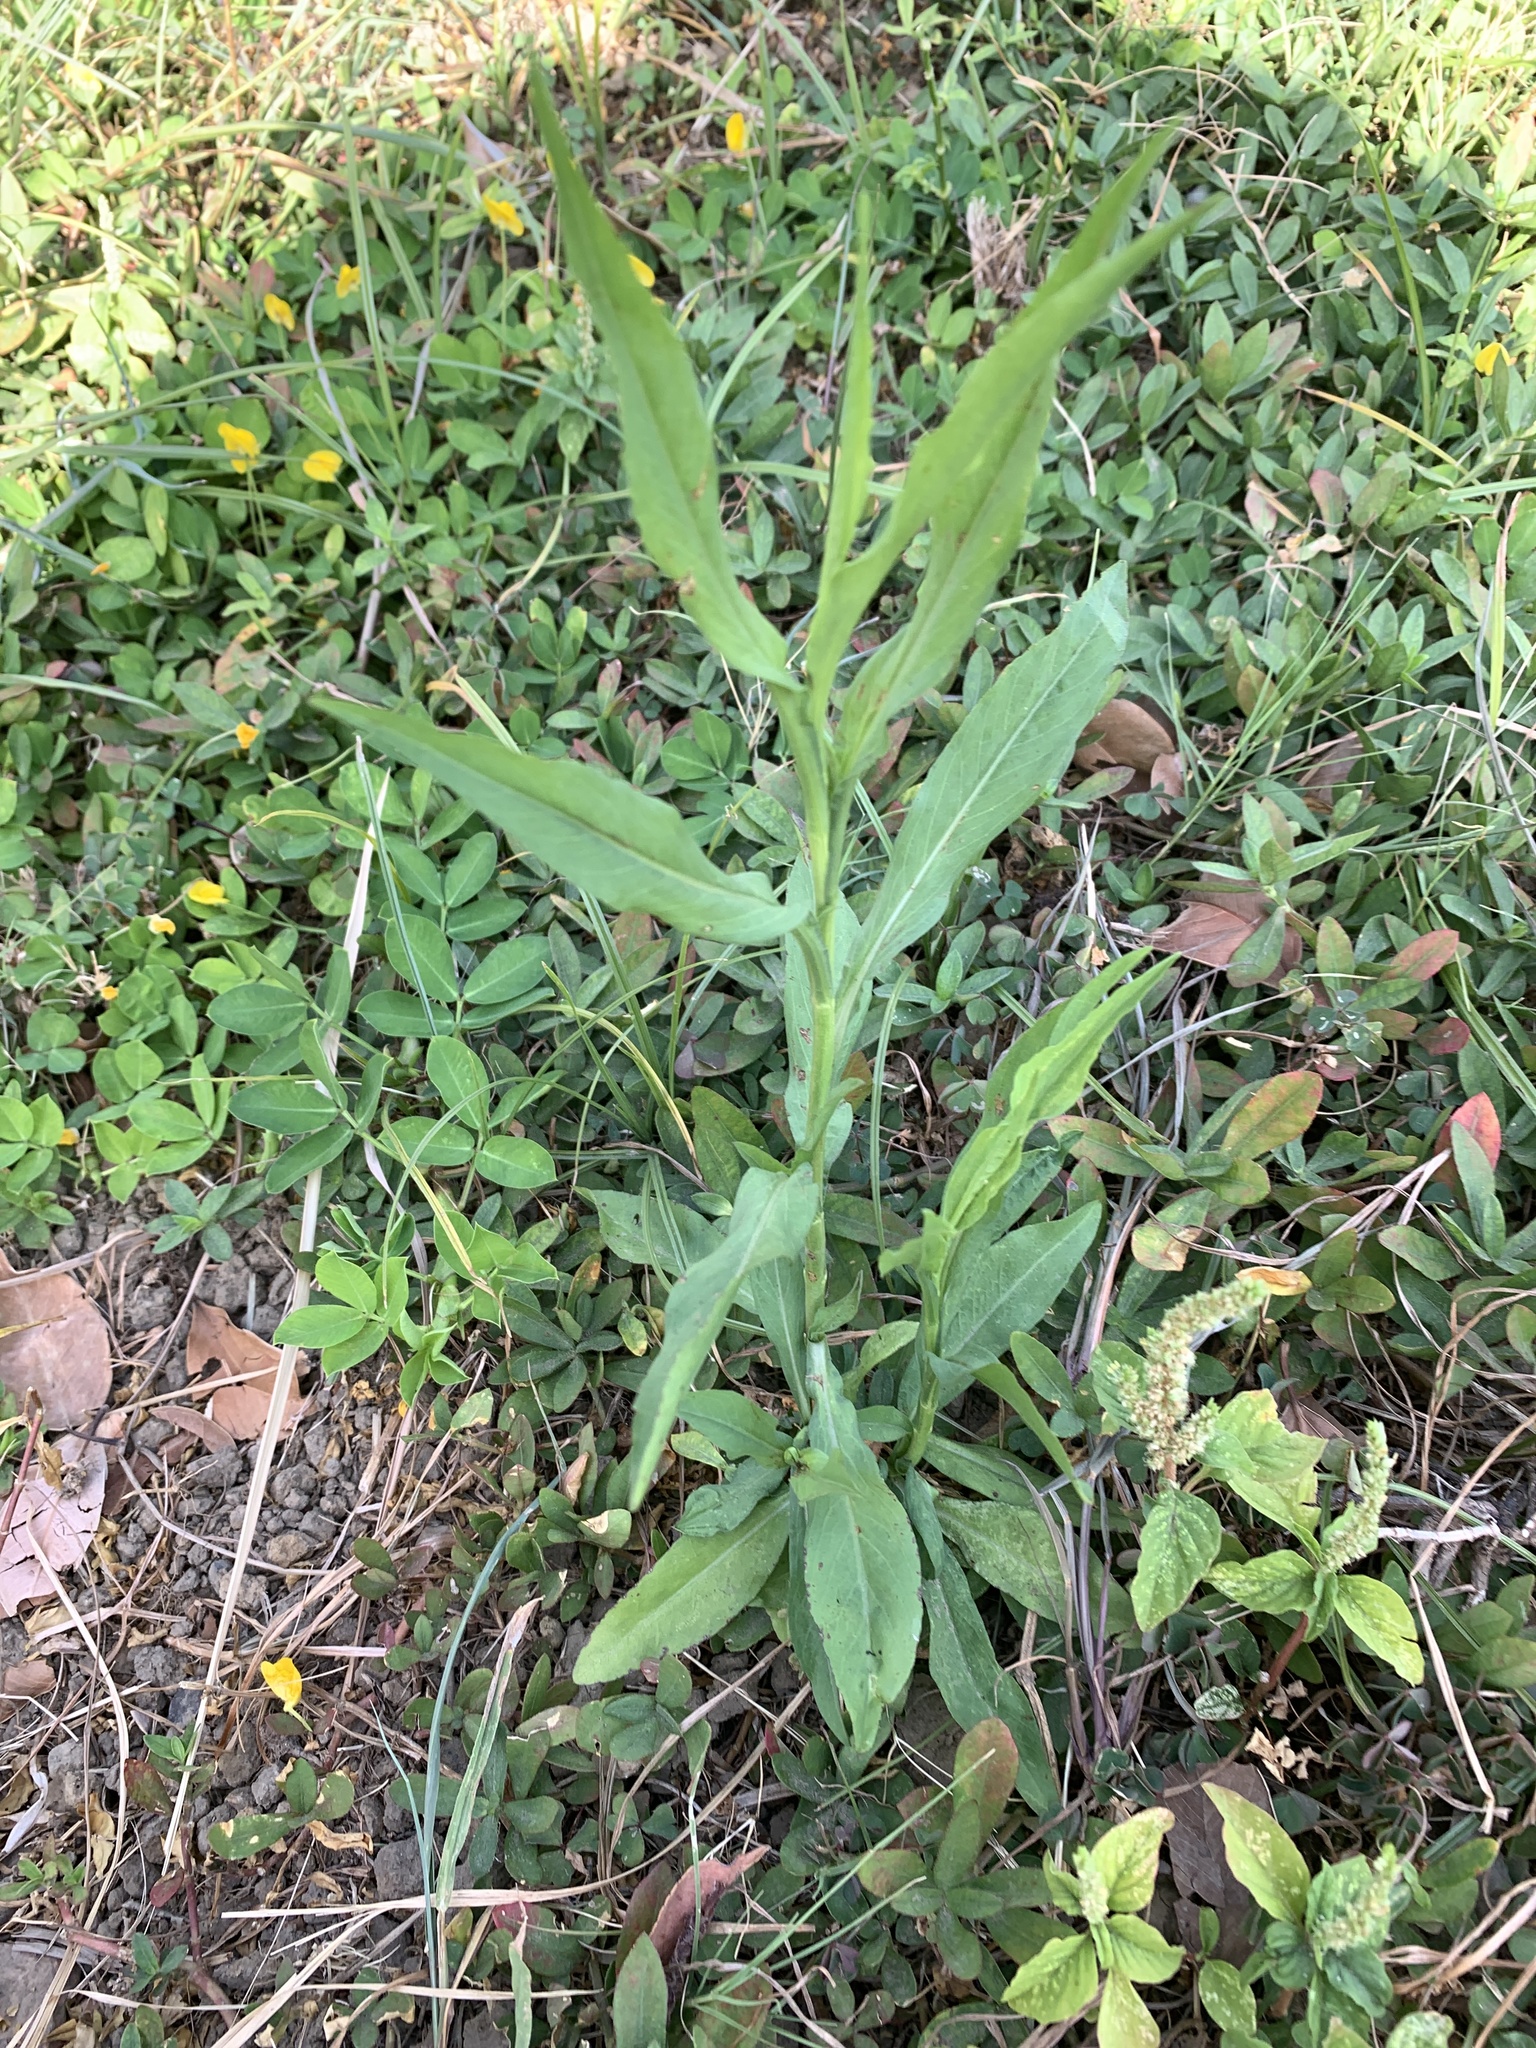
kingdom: Plantae
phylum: Tracheophyta
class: Magnoliopsida
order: Asterales
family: Asteraceae
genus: Symphyotrichum
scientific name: Symphyotrichum subulatum
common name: Annual saltmarsh aster
